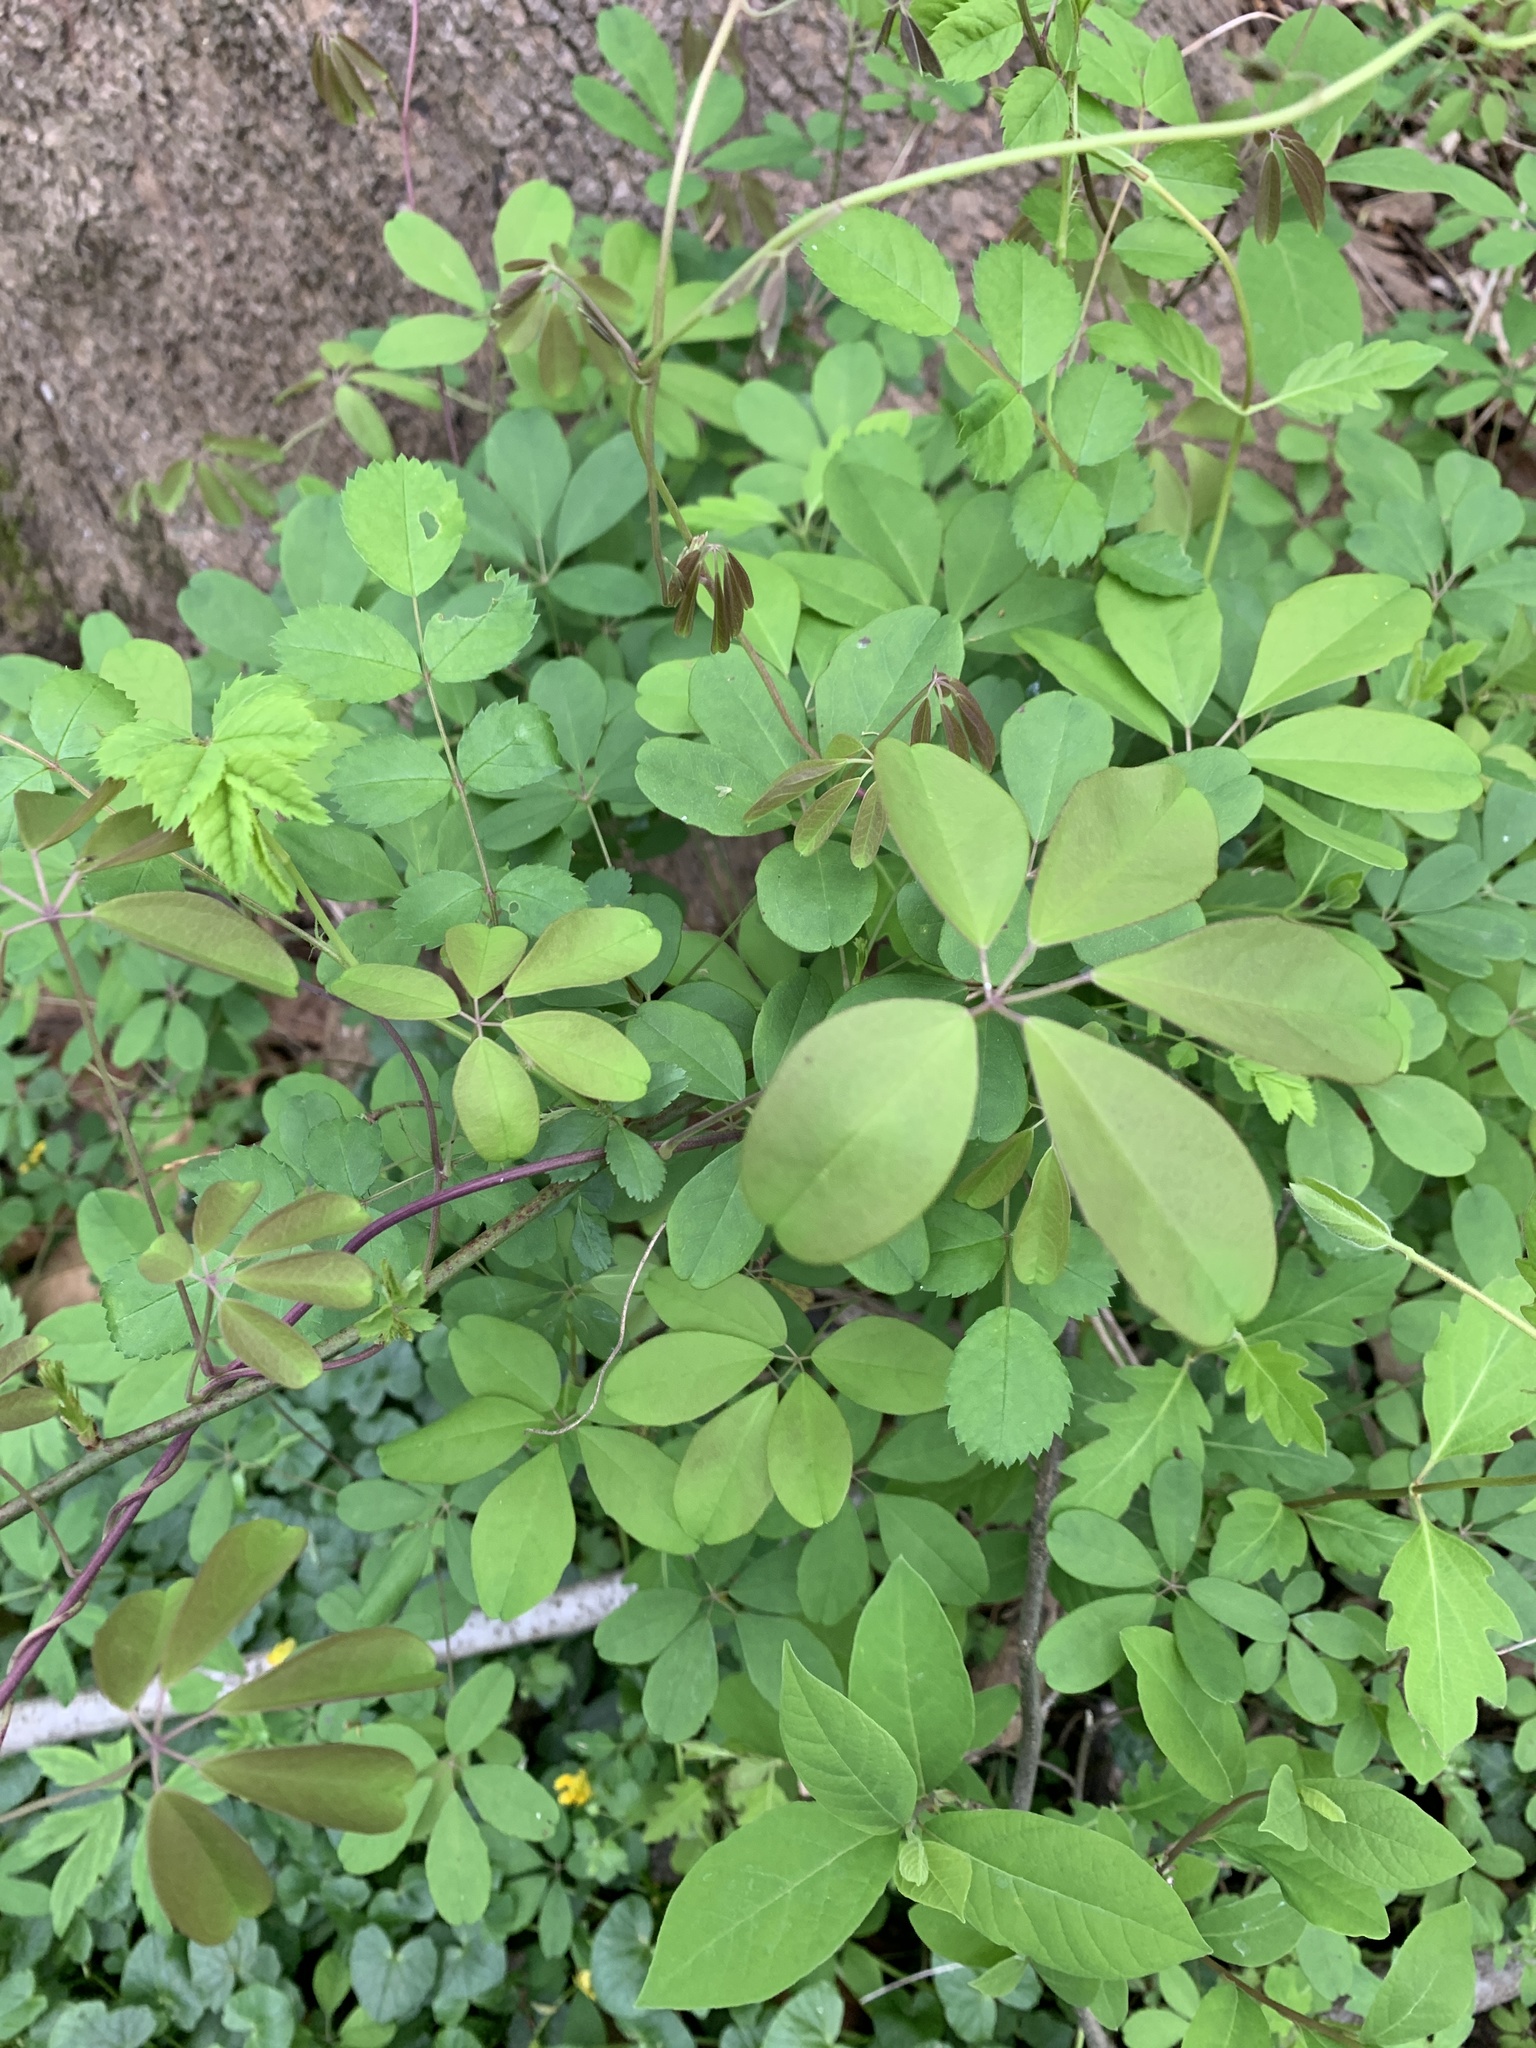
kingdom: Plantae
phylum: Tracheophyta
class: Magnoliopsida
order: Ranunculales
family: Lardizabalaceae
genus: Akebia
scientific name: Akebia quinata
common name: Five-leaf akebia
